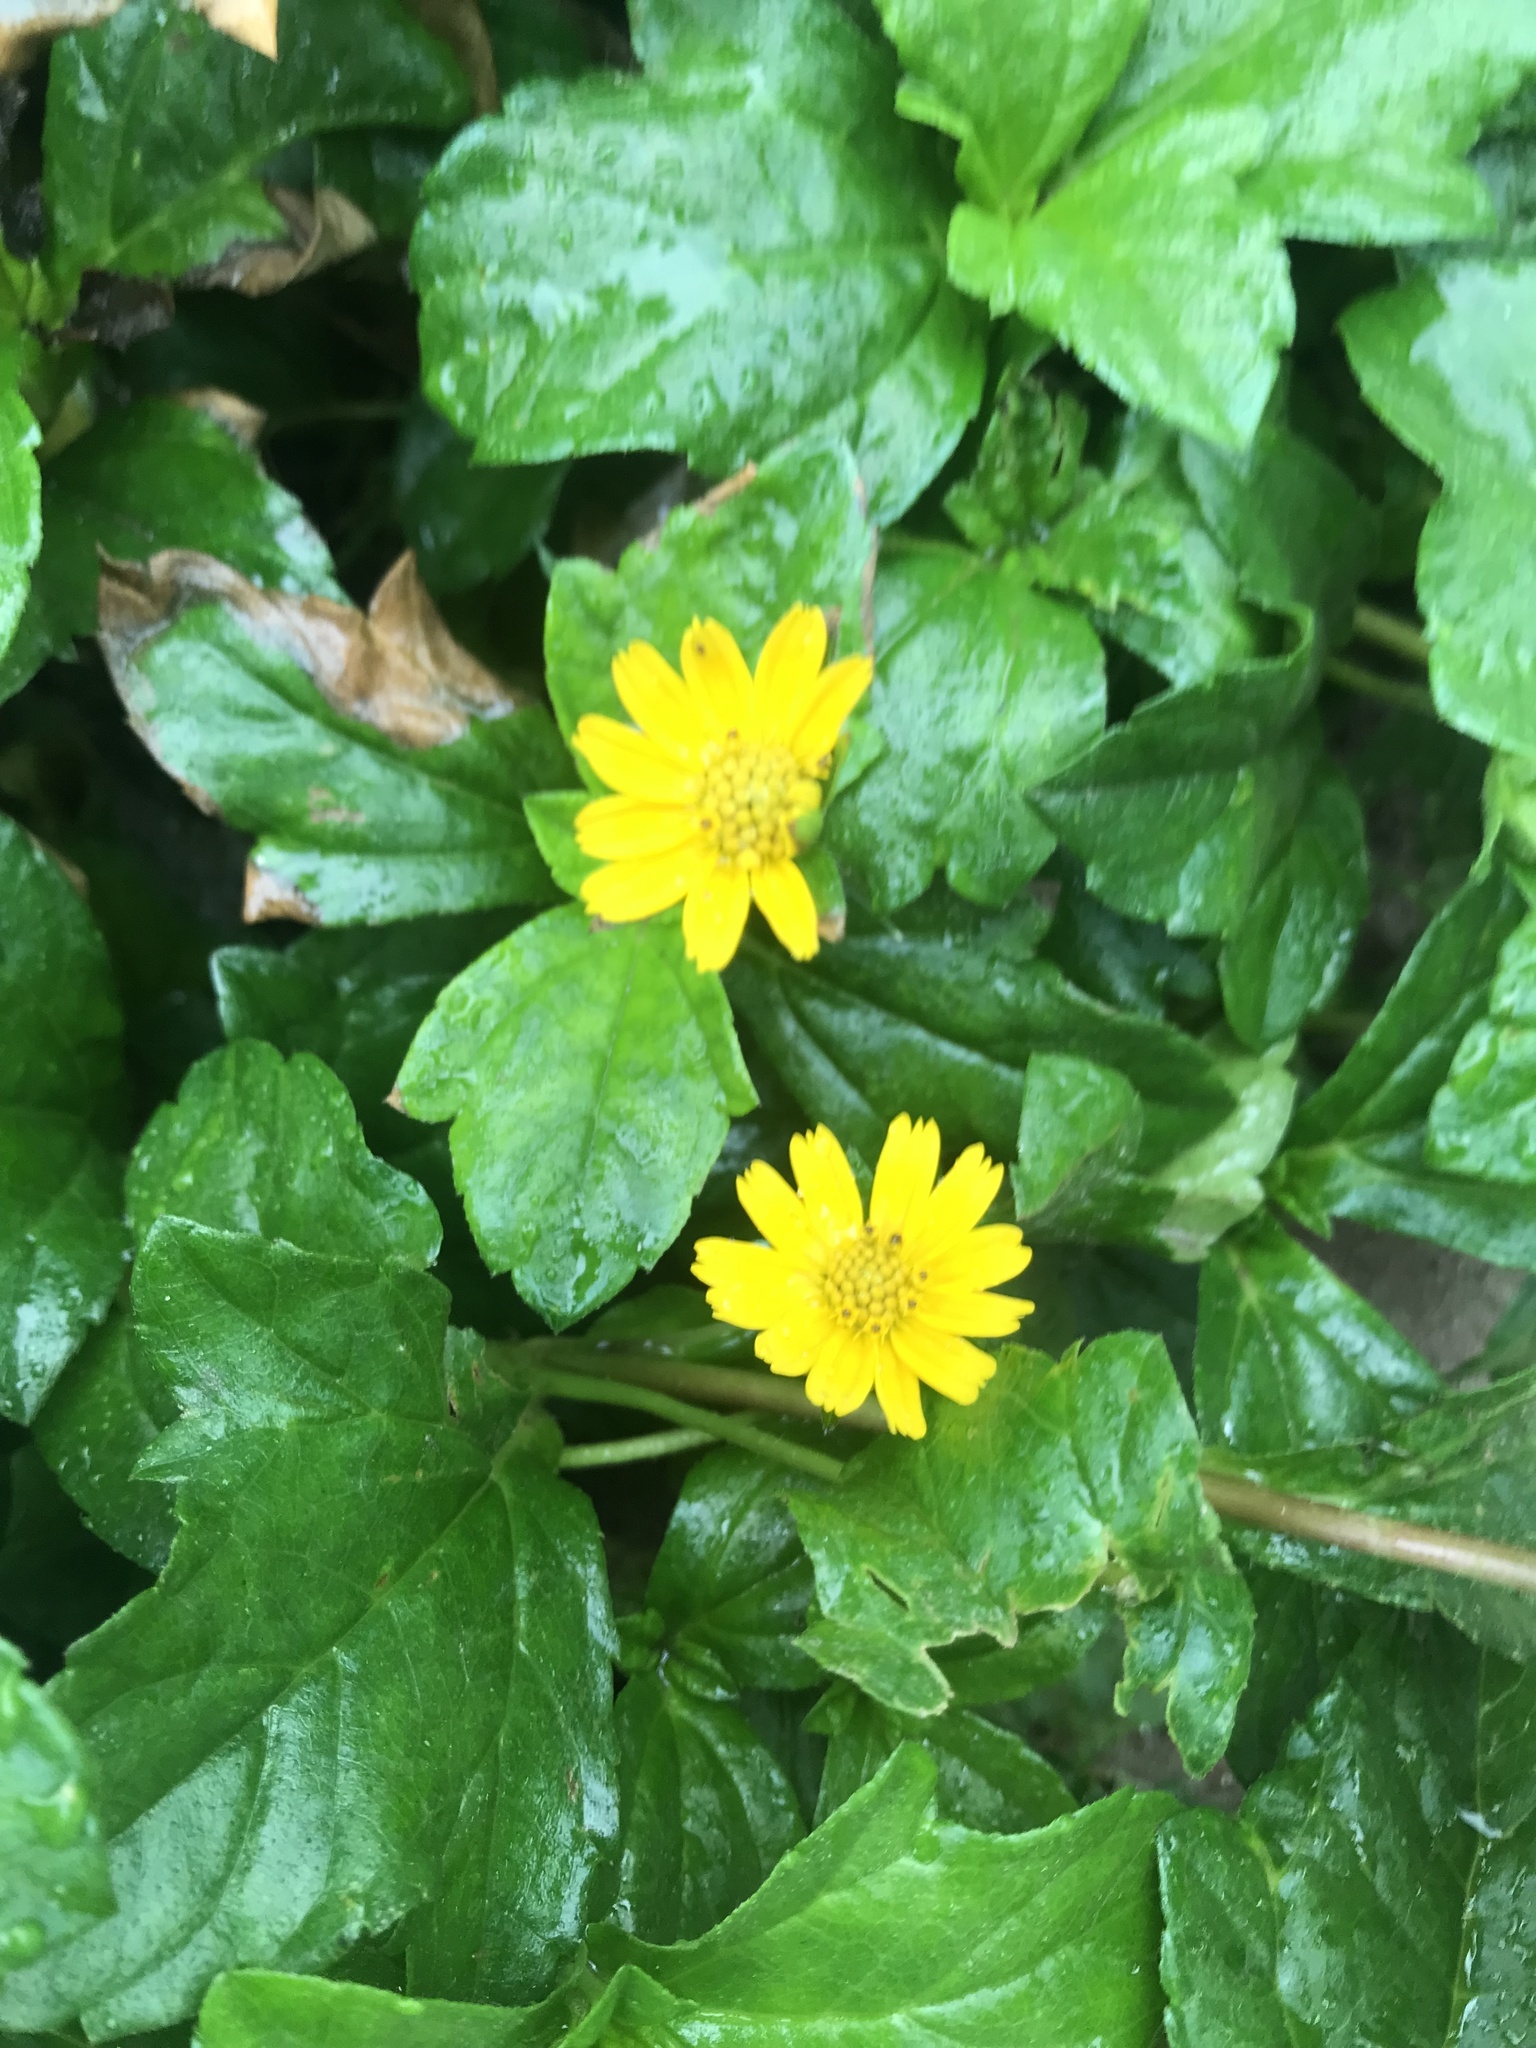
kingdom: Plantae
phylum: Tracheophyta
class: Magnoliopsida
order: Asterales
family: Asteraceae
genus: Sphagneticola
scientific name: Sphagneticola trilobata
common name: Bay biscayne creeping-oxeye
